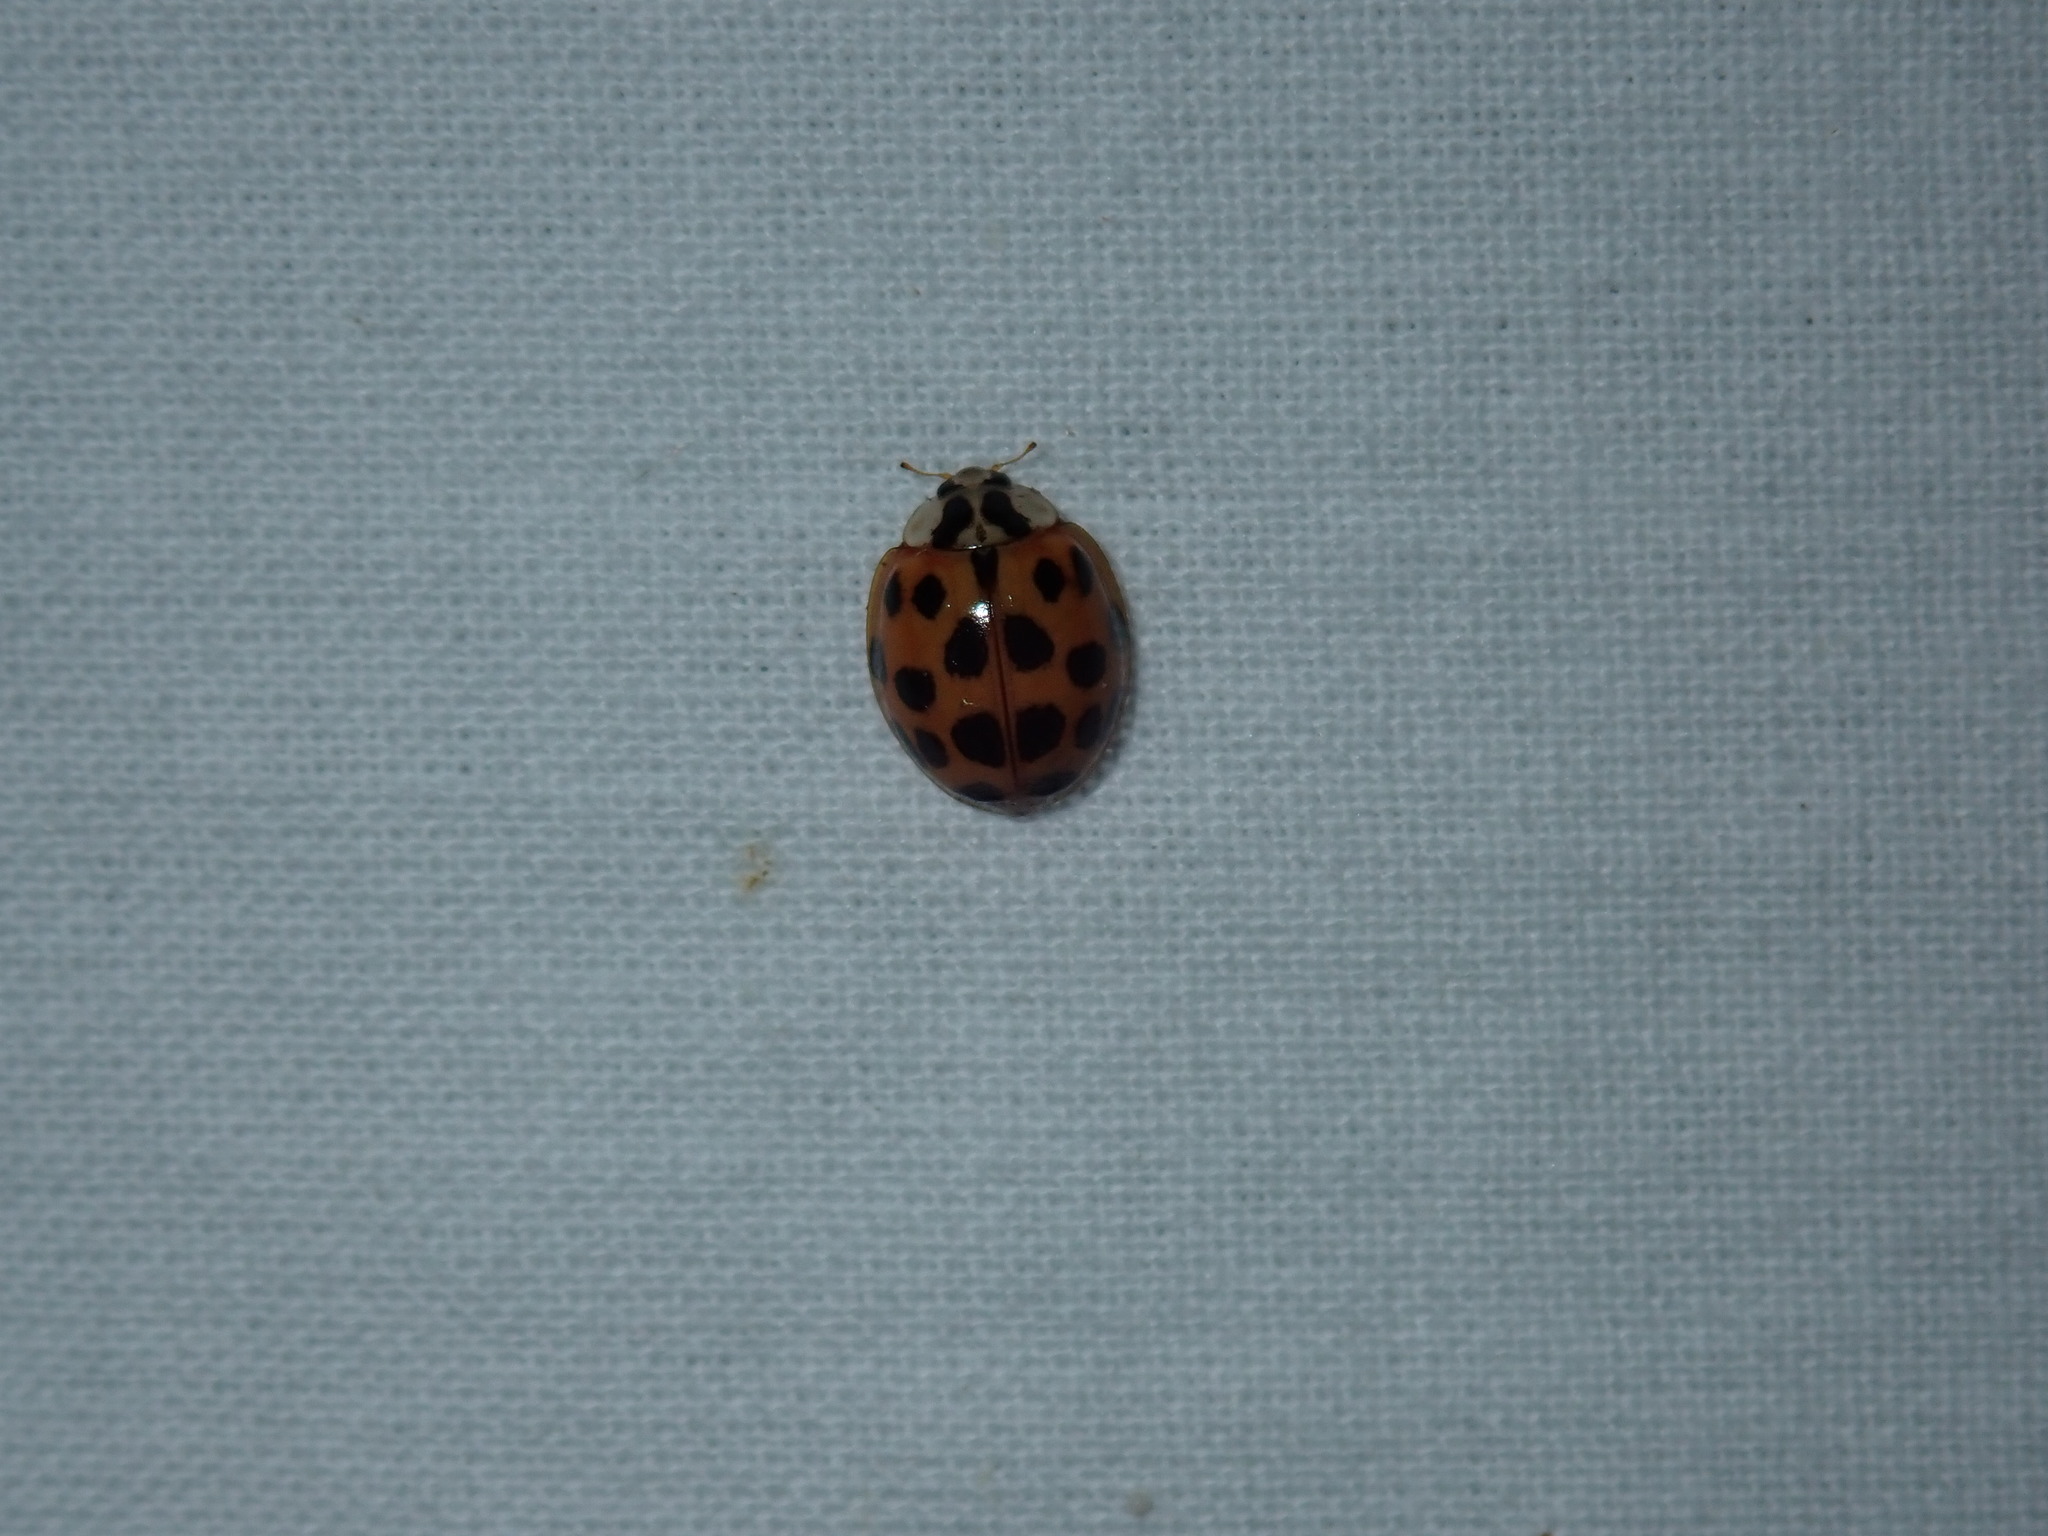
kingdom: Animalia
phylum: Arthropoda
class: Insecta
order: Coleoptera
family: Coccinellidae
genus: Harmonia
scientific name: Harmonia axyridis
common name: Harlequin ladybird
